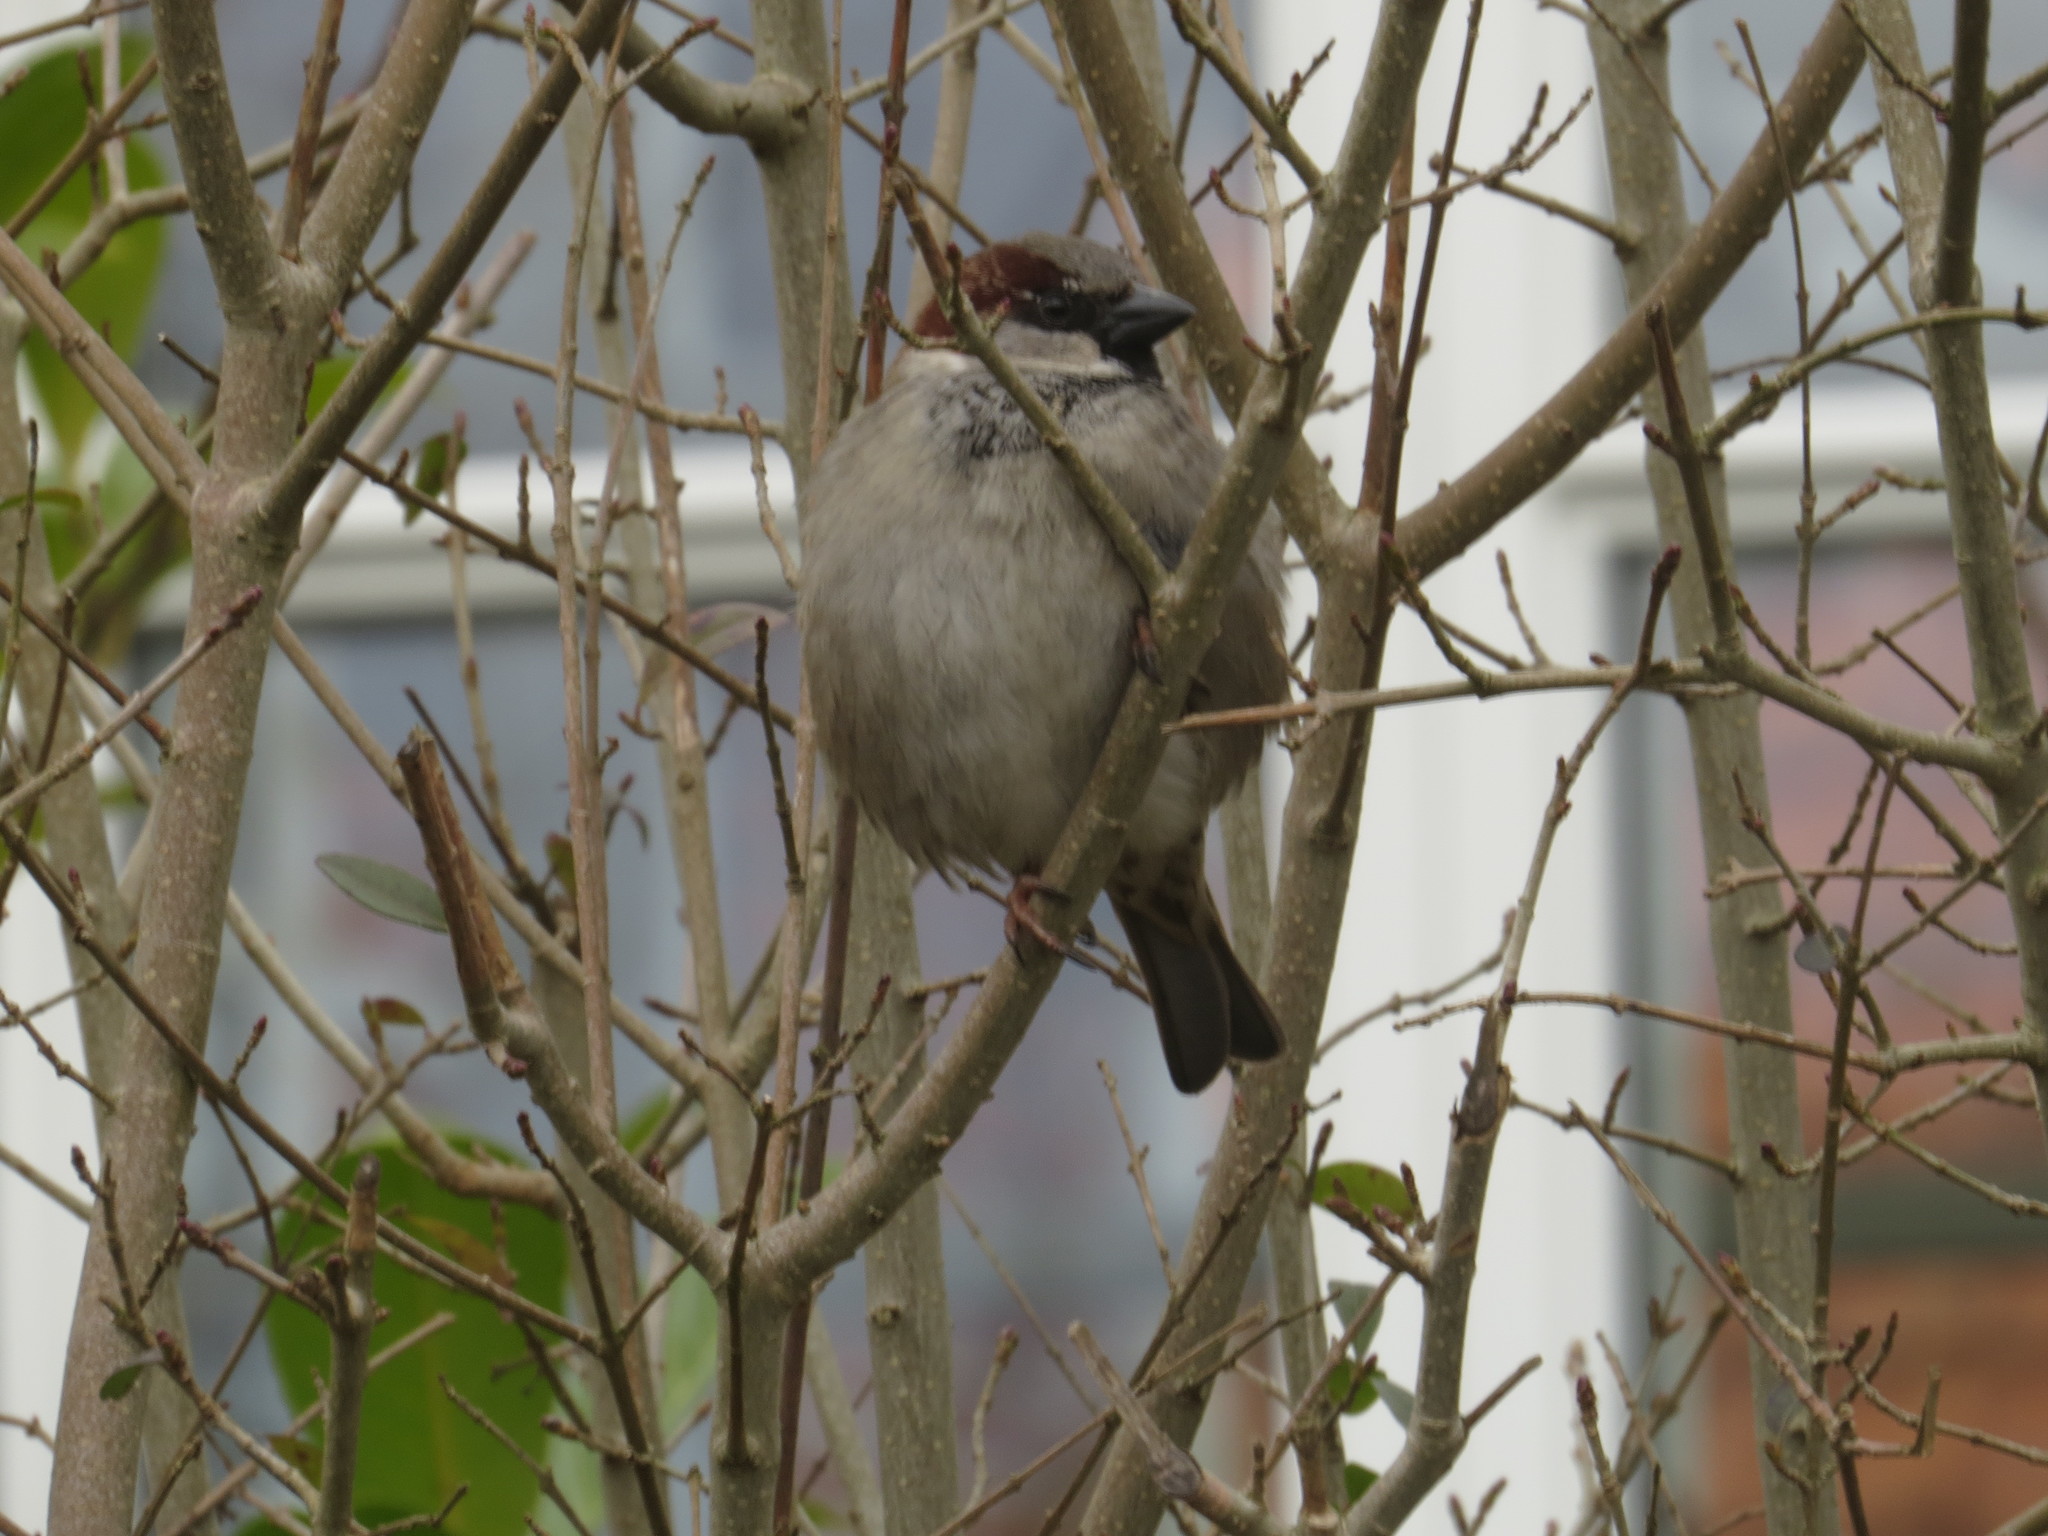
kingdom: Animalia
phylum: Chordata
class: Aves
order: Passeriformes
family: Passeridae
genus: Passer
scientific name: Passer domesticus
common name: House sparrow
